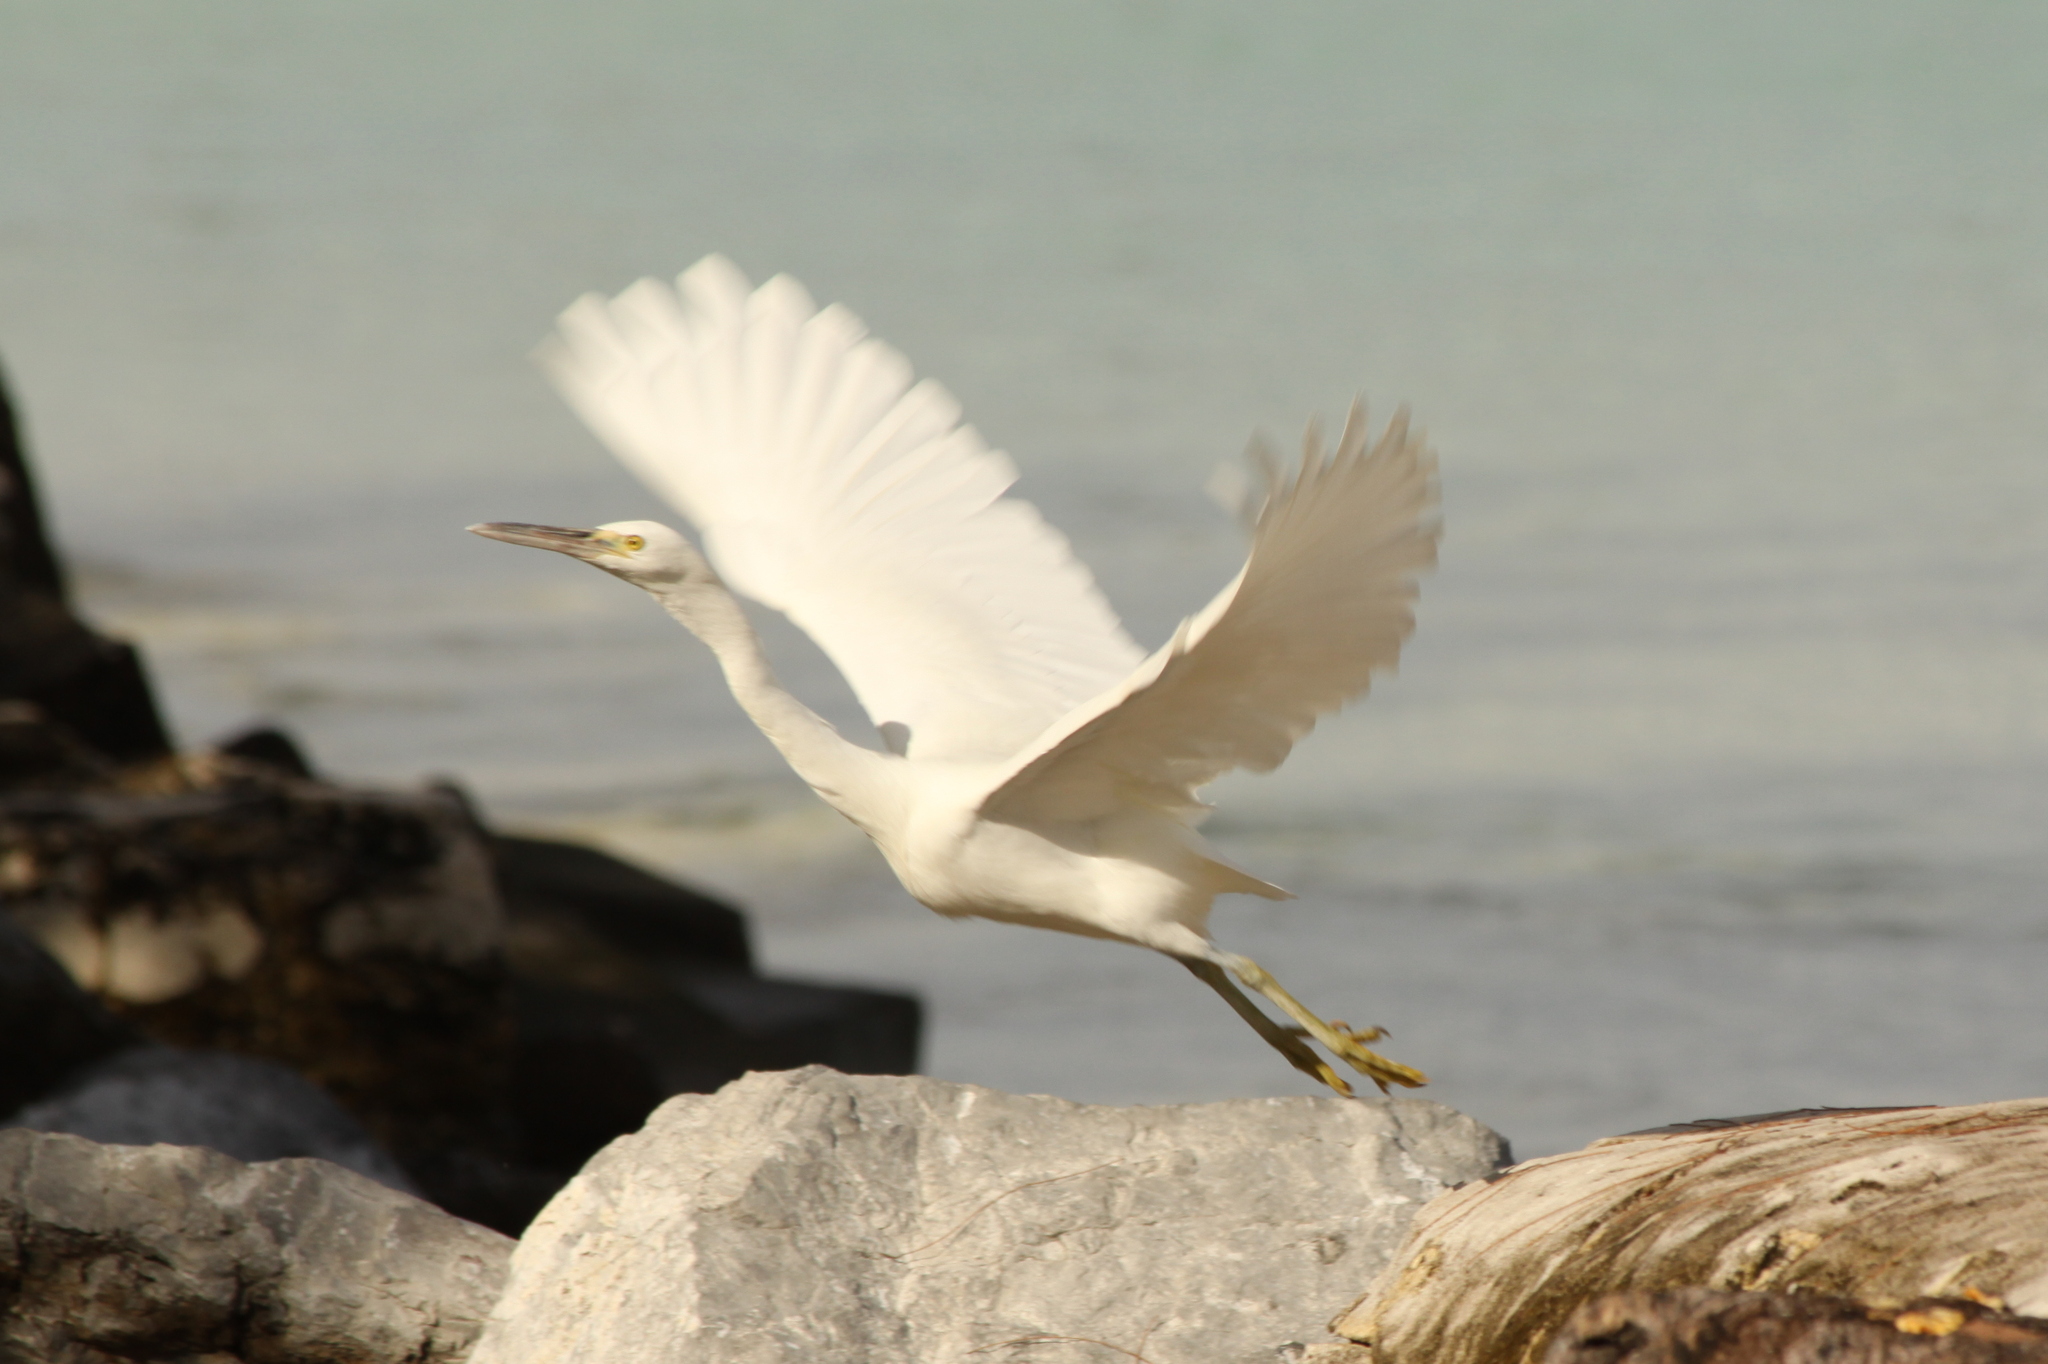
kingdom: Animalia
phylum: Chordata
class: Aves
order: Pelecaniformes
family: Ardeidae
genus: Egretta
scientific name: Egretta sacra
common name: Pacific reef heron
